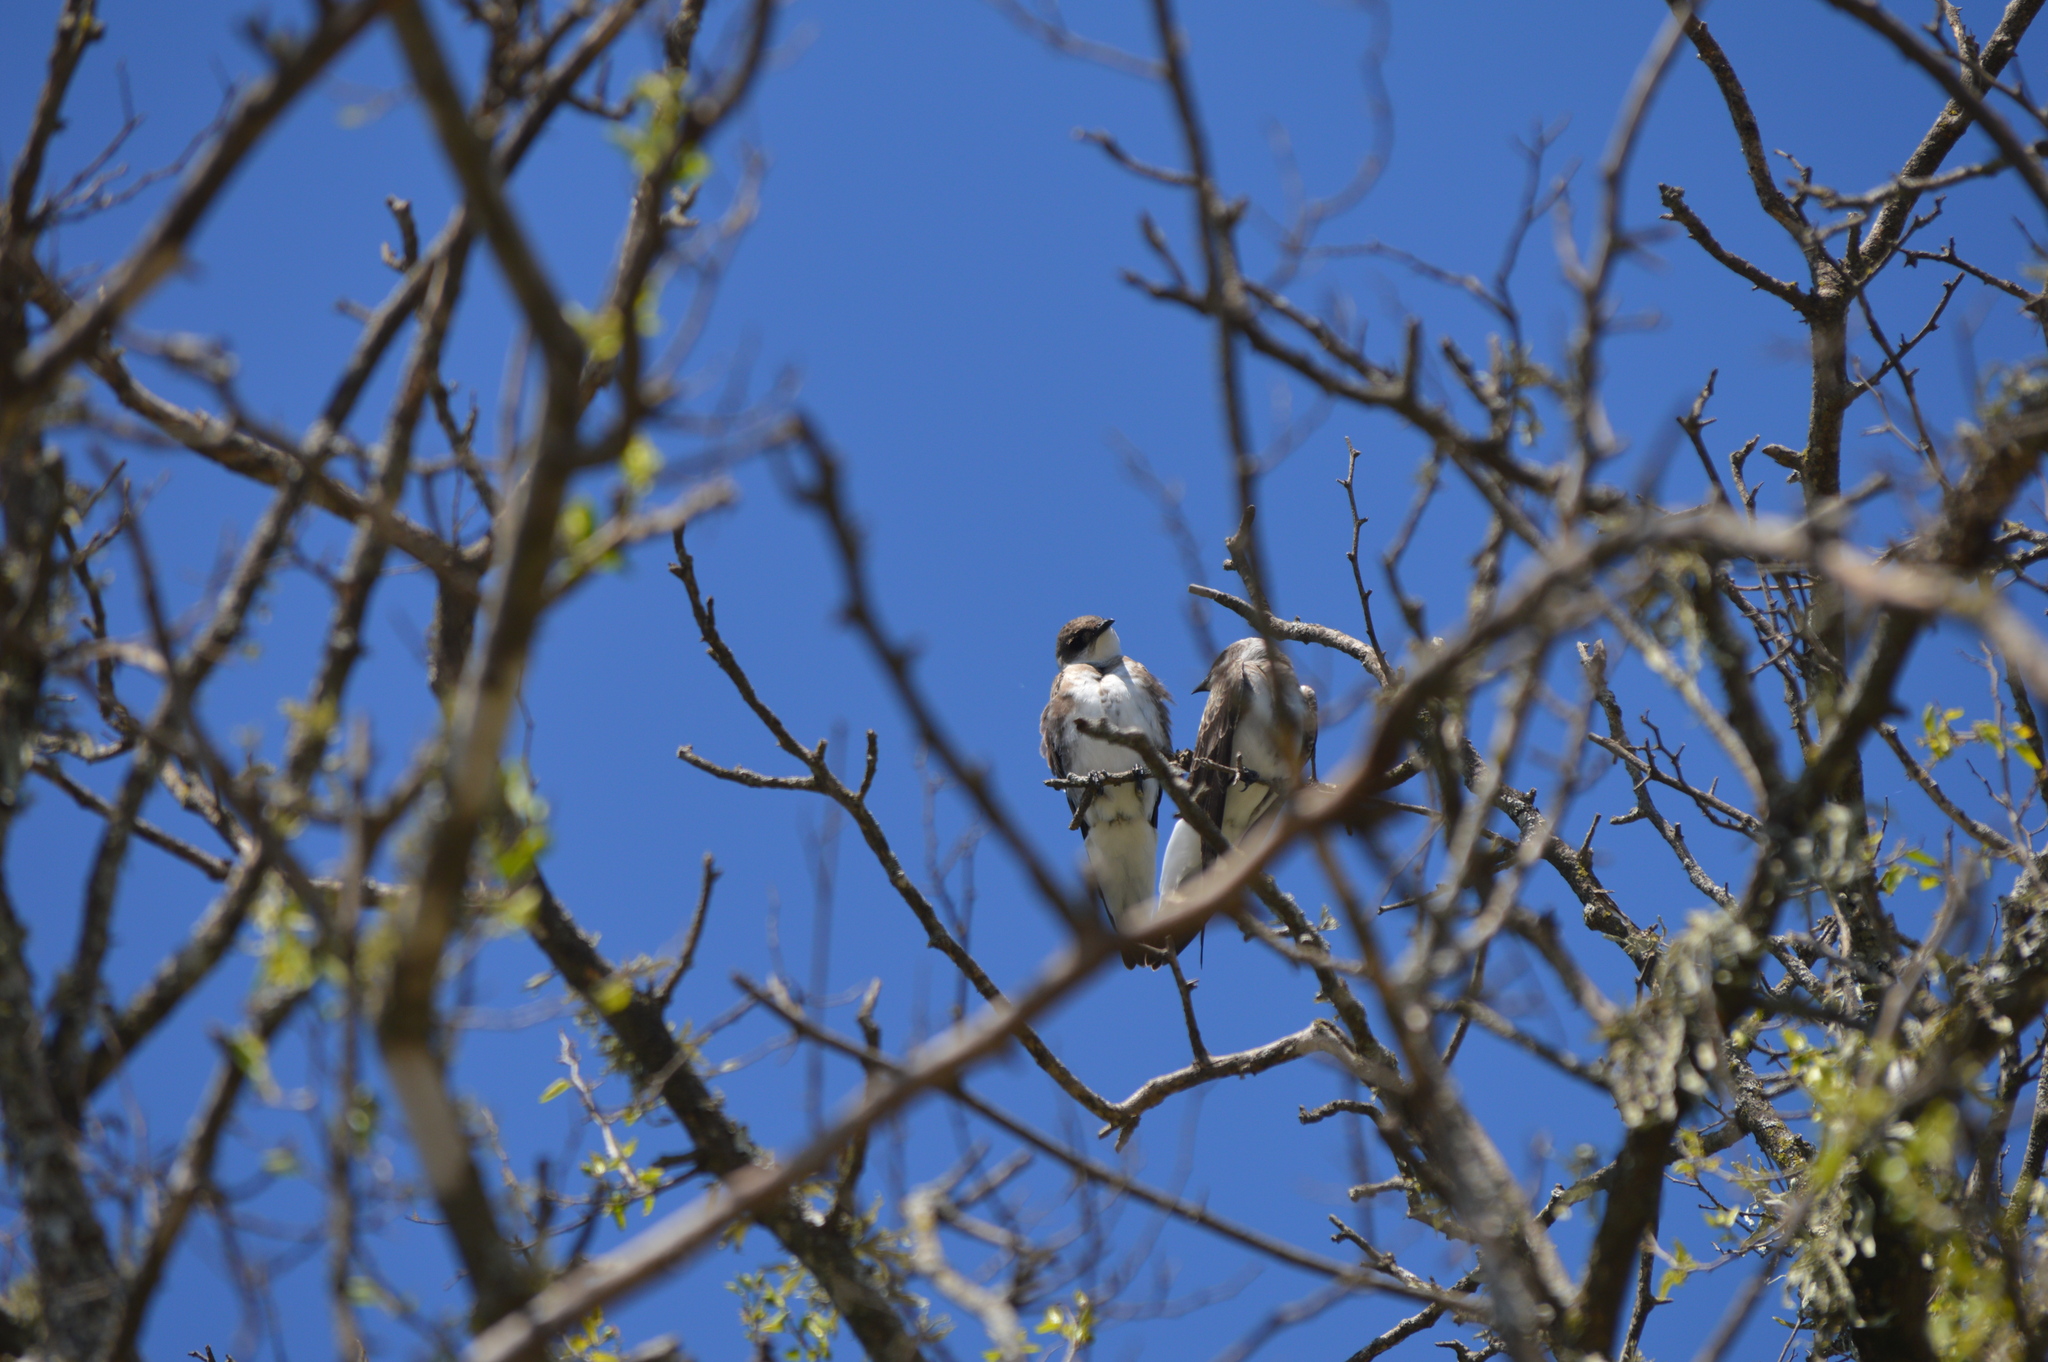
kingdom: Animalia
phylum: Chordata
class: Aves
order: Passeriformes
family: Hirundinidae
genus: Progne
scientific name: Progne tapera
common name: Brown-chested martin
